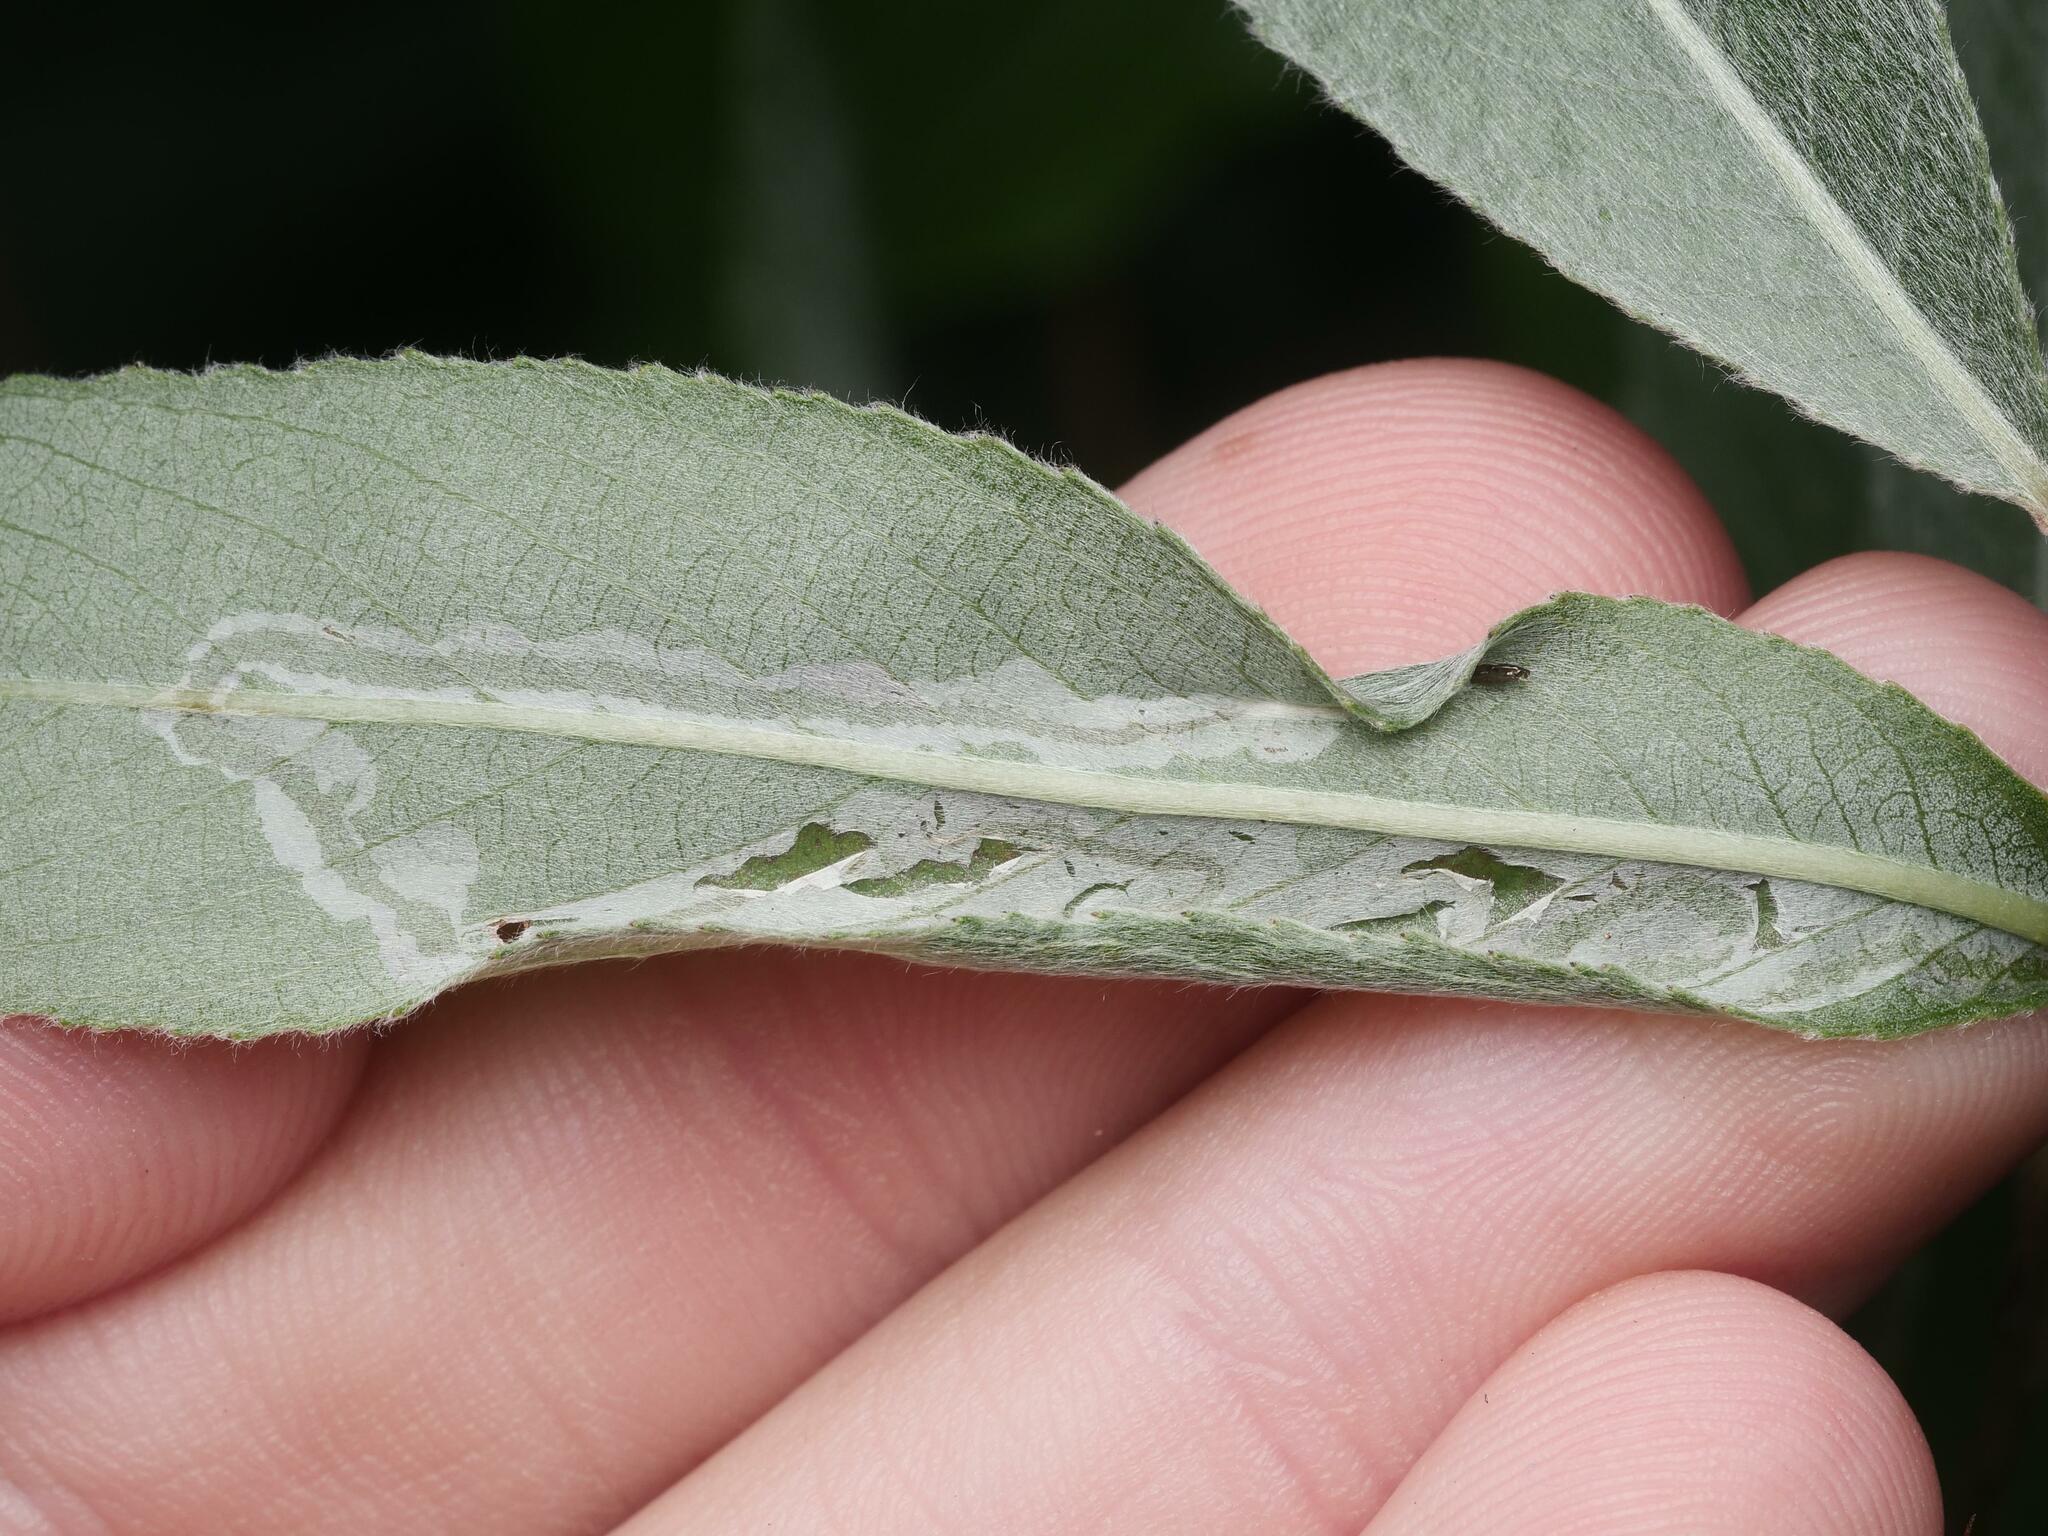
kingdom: Animalia
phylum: Arthropoda
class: Insecta
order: Lepidoptera
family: Gracillariidae
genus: Phyllocnistis
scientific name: Phyllocnistis saligna
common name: Willow bent-wing
